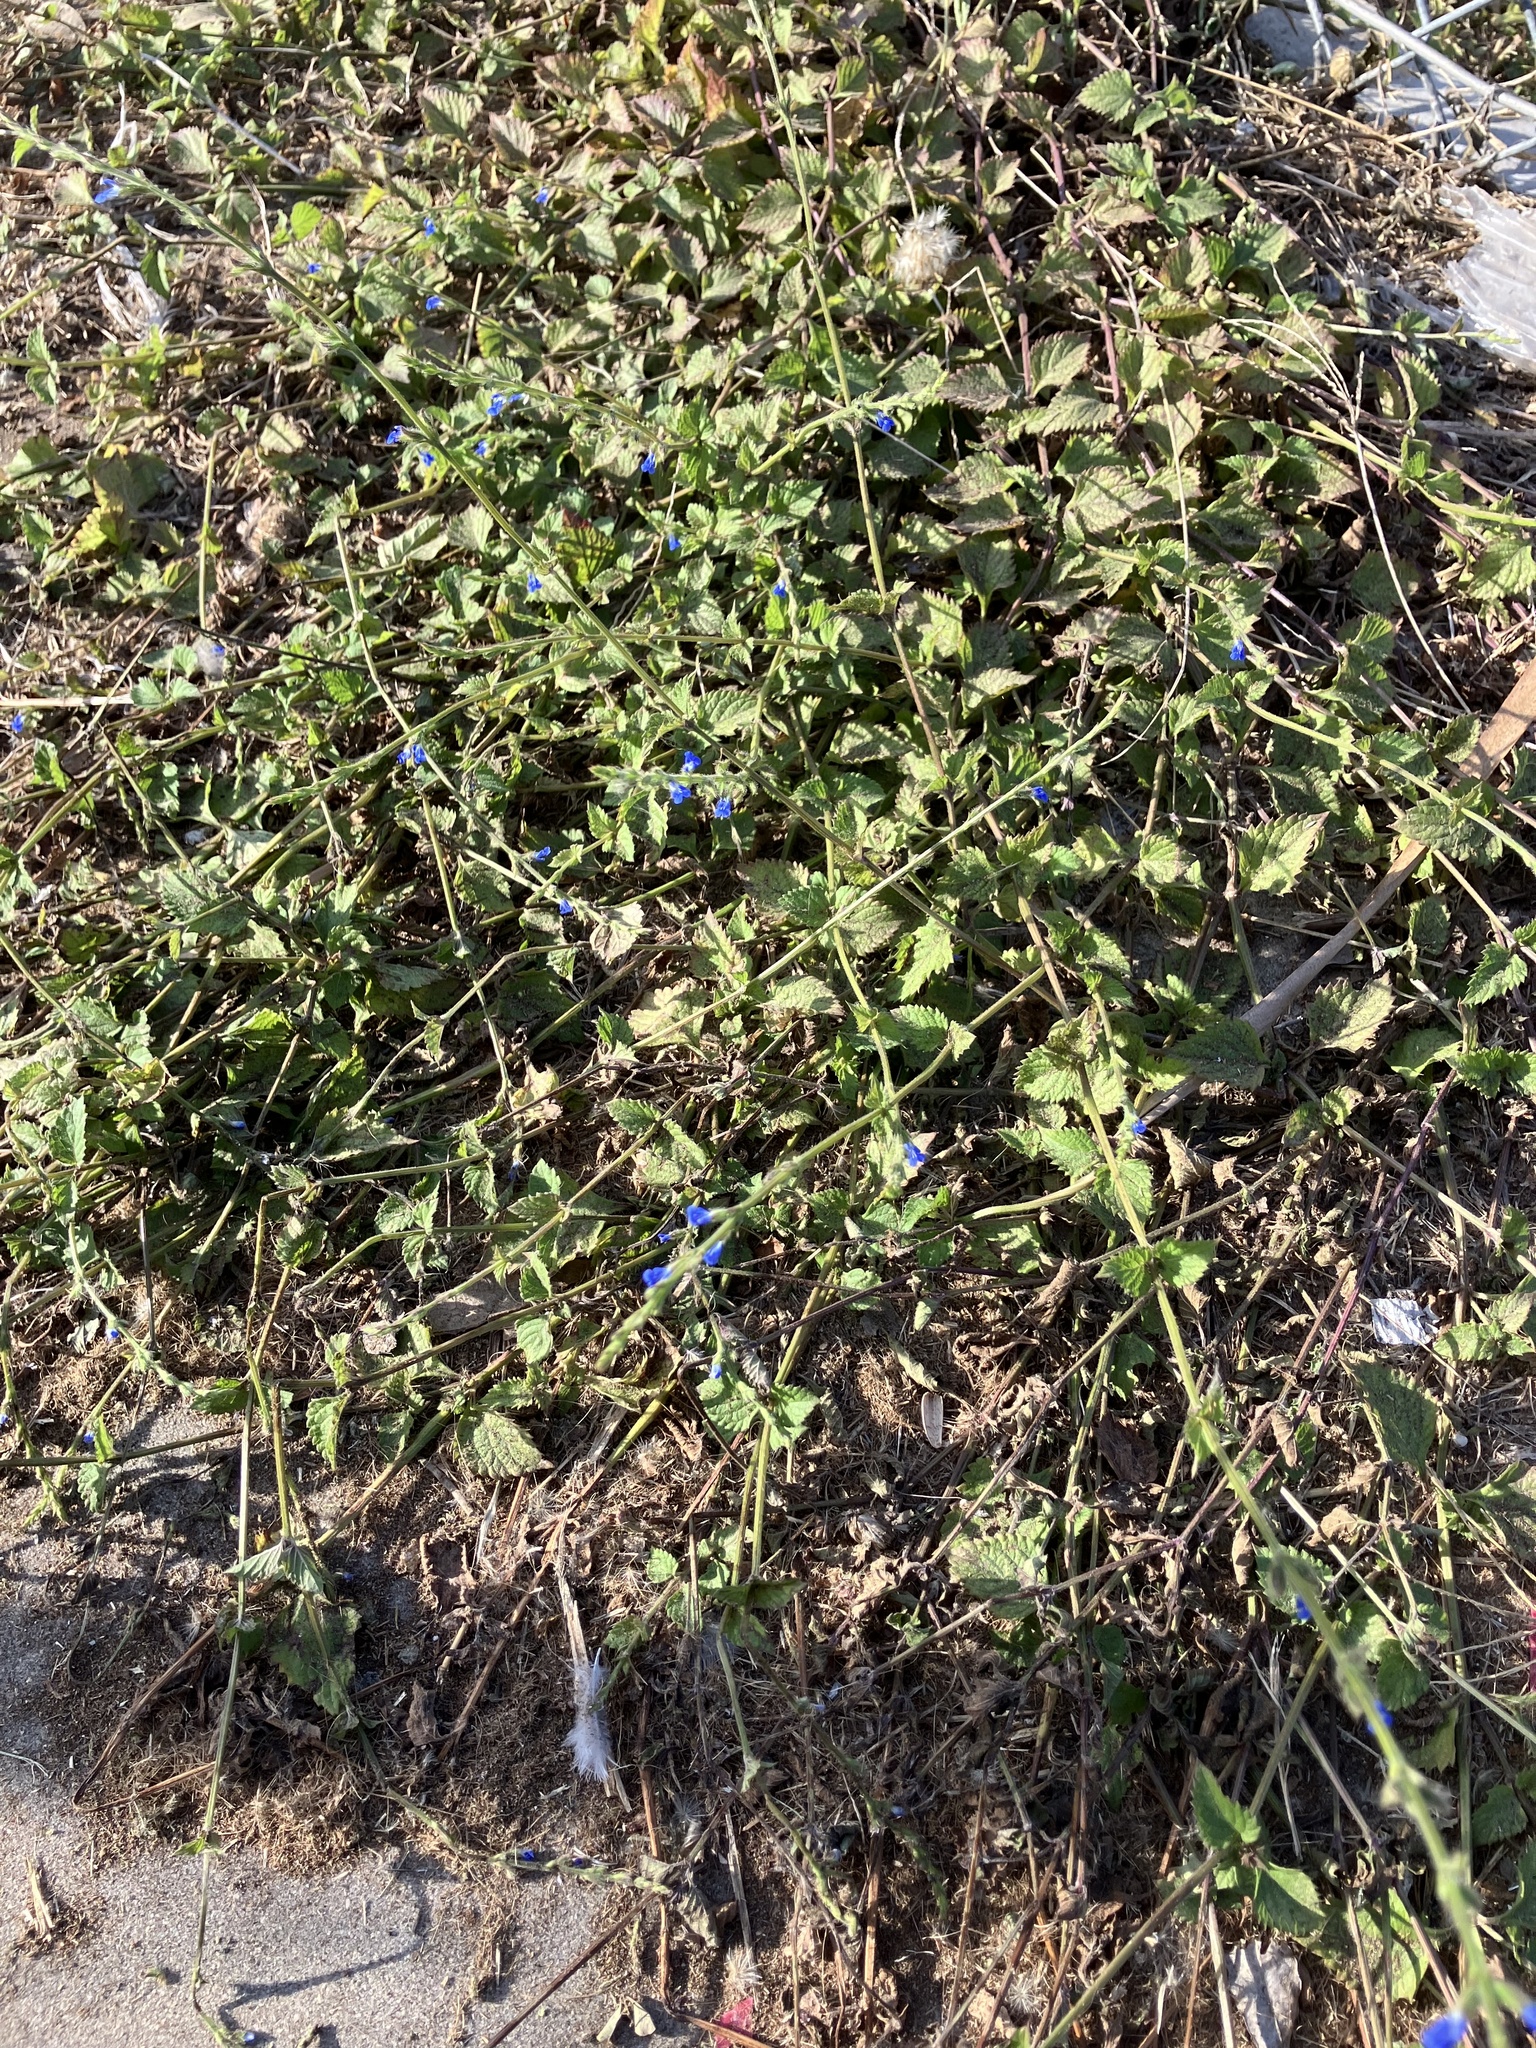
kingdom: Plantae
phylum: Tracheophyta
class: Magnoliopsida
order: Lamiales
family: Lamiaceae
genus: Salvia
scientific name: Salvia misella
